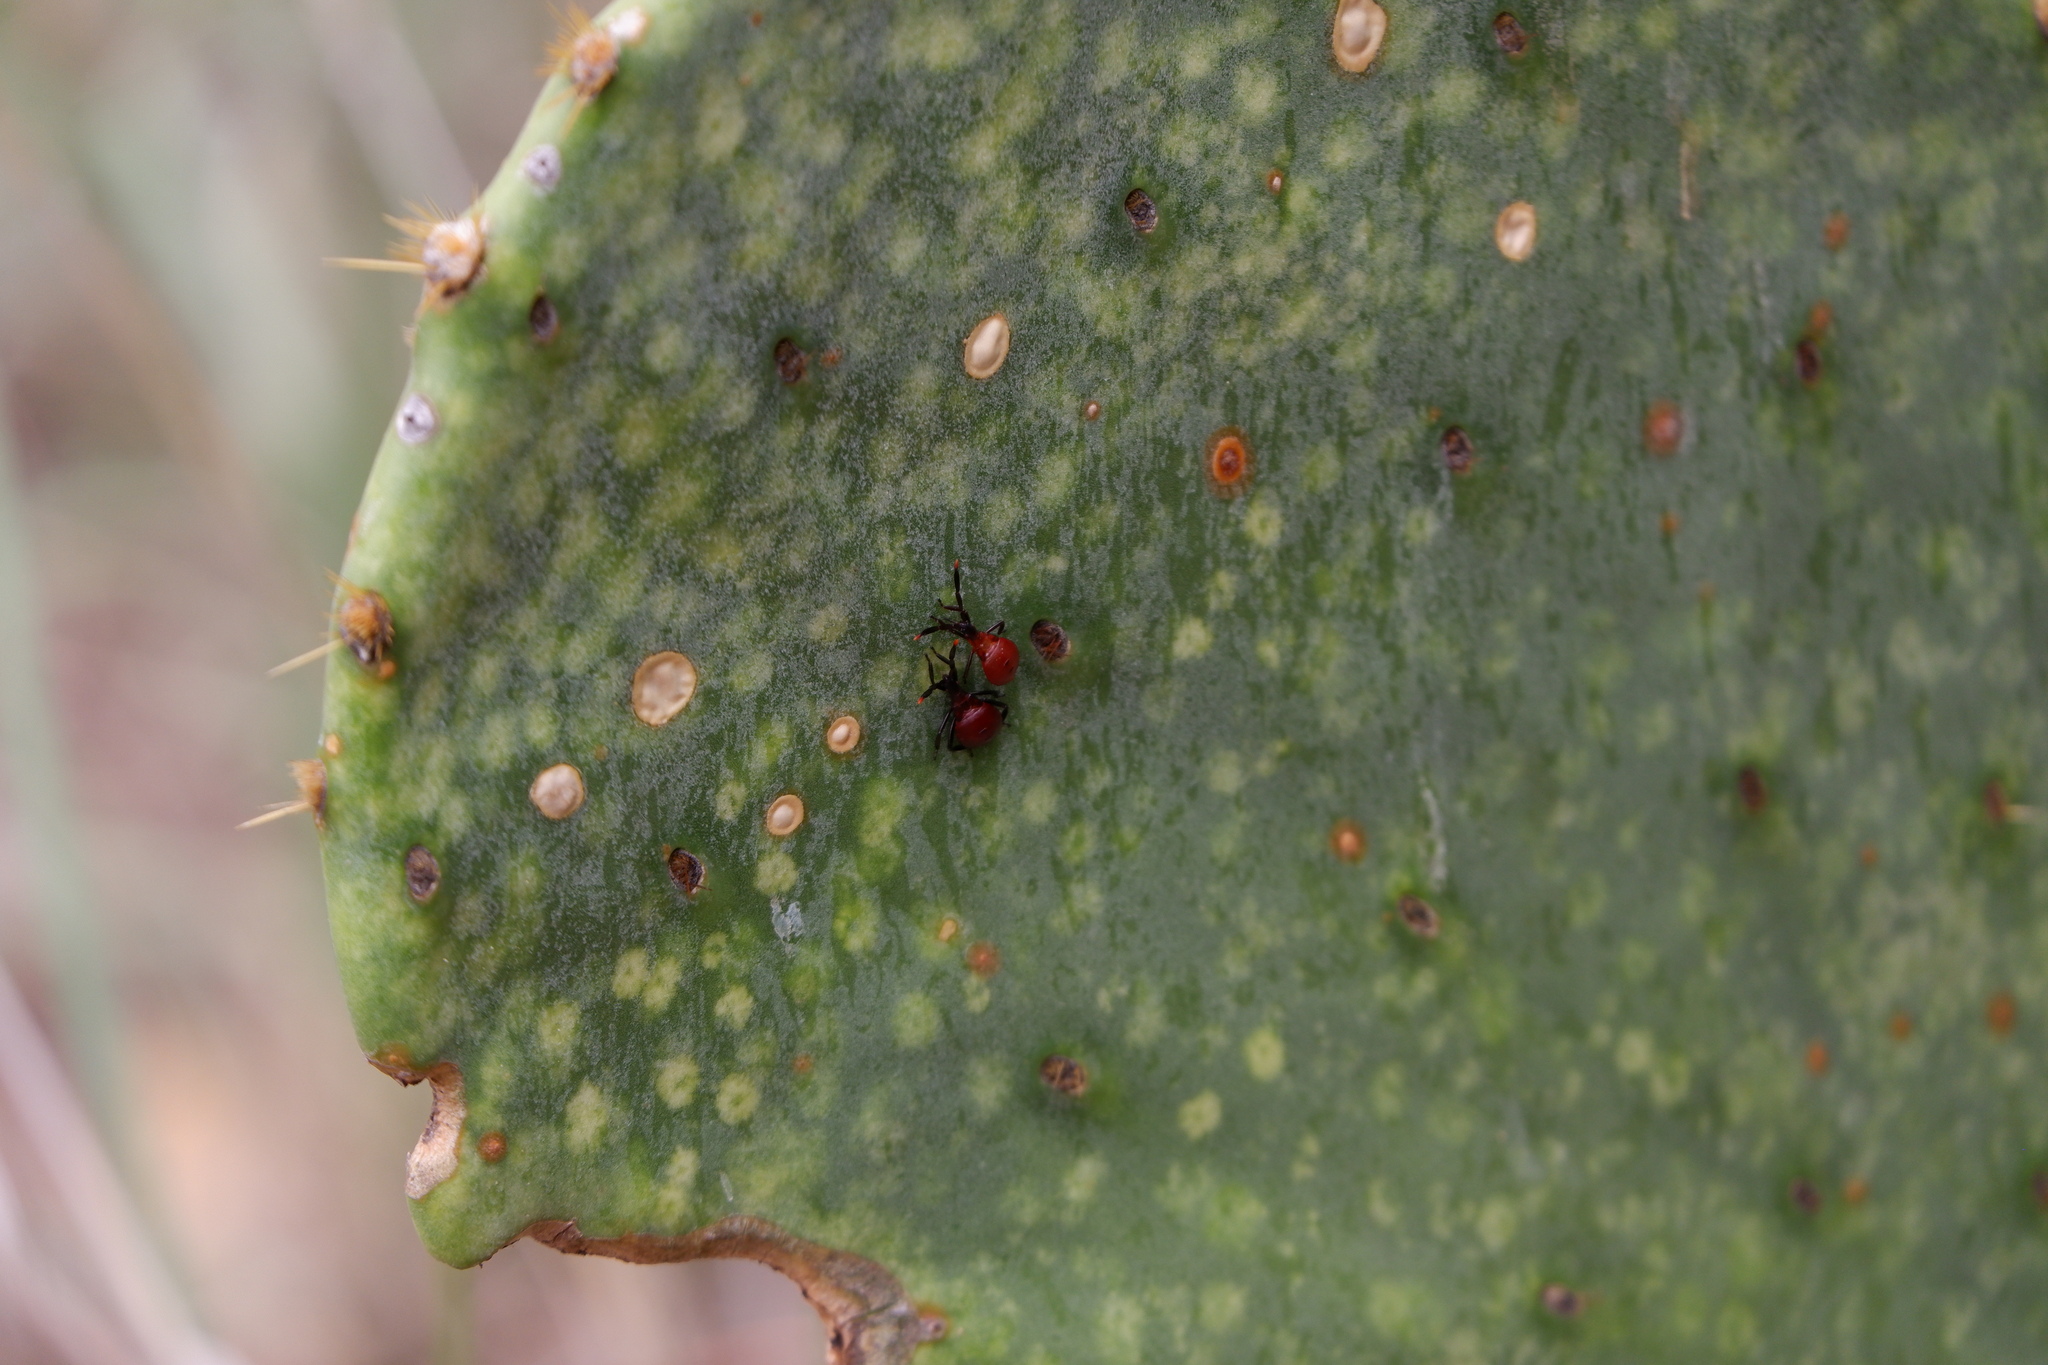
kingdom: Animalia
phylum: Arthropoda
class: Insecta
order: Hemiptera
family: Coreidae
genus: Chelinidea
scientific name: Chelinidea vittiger
